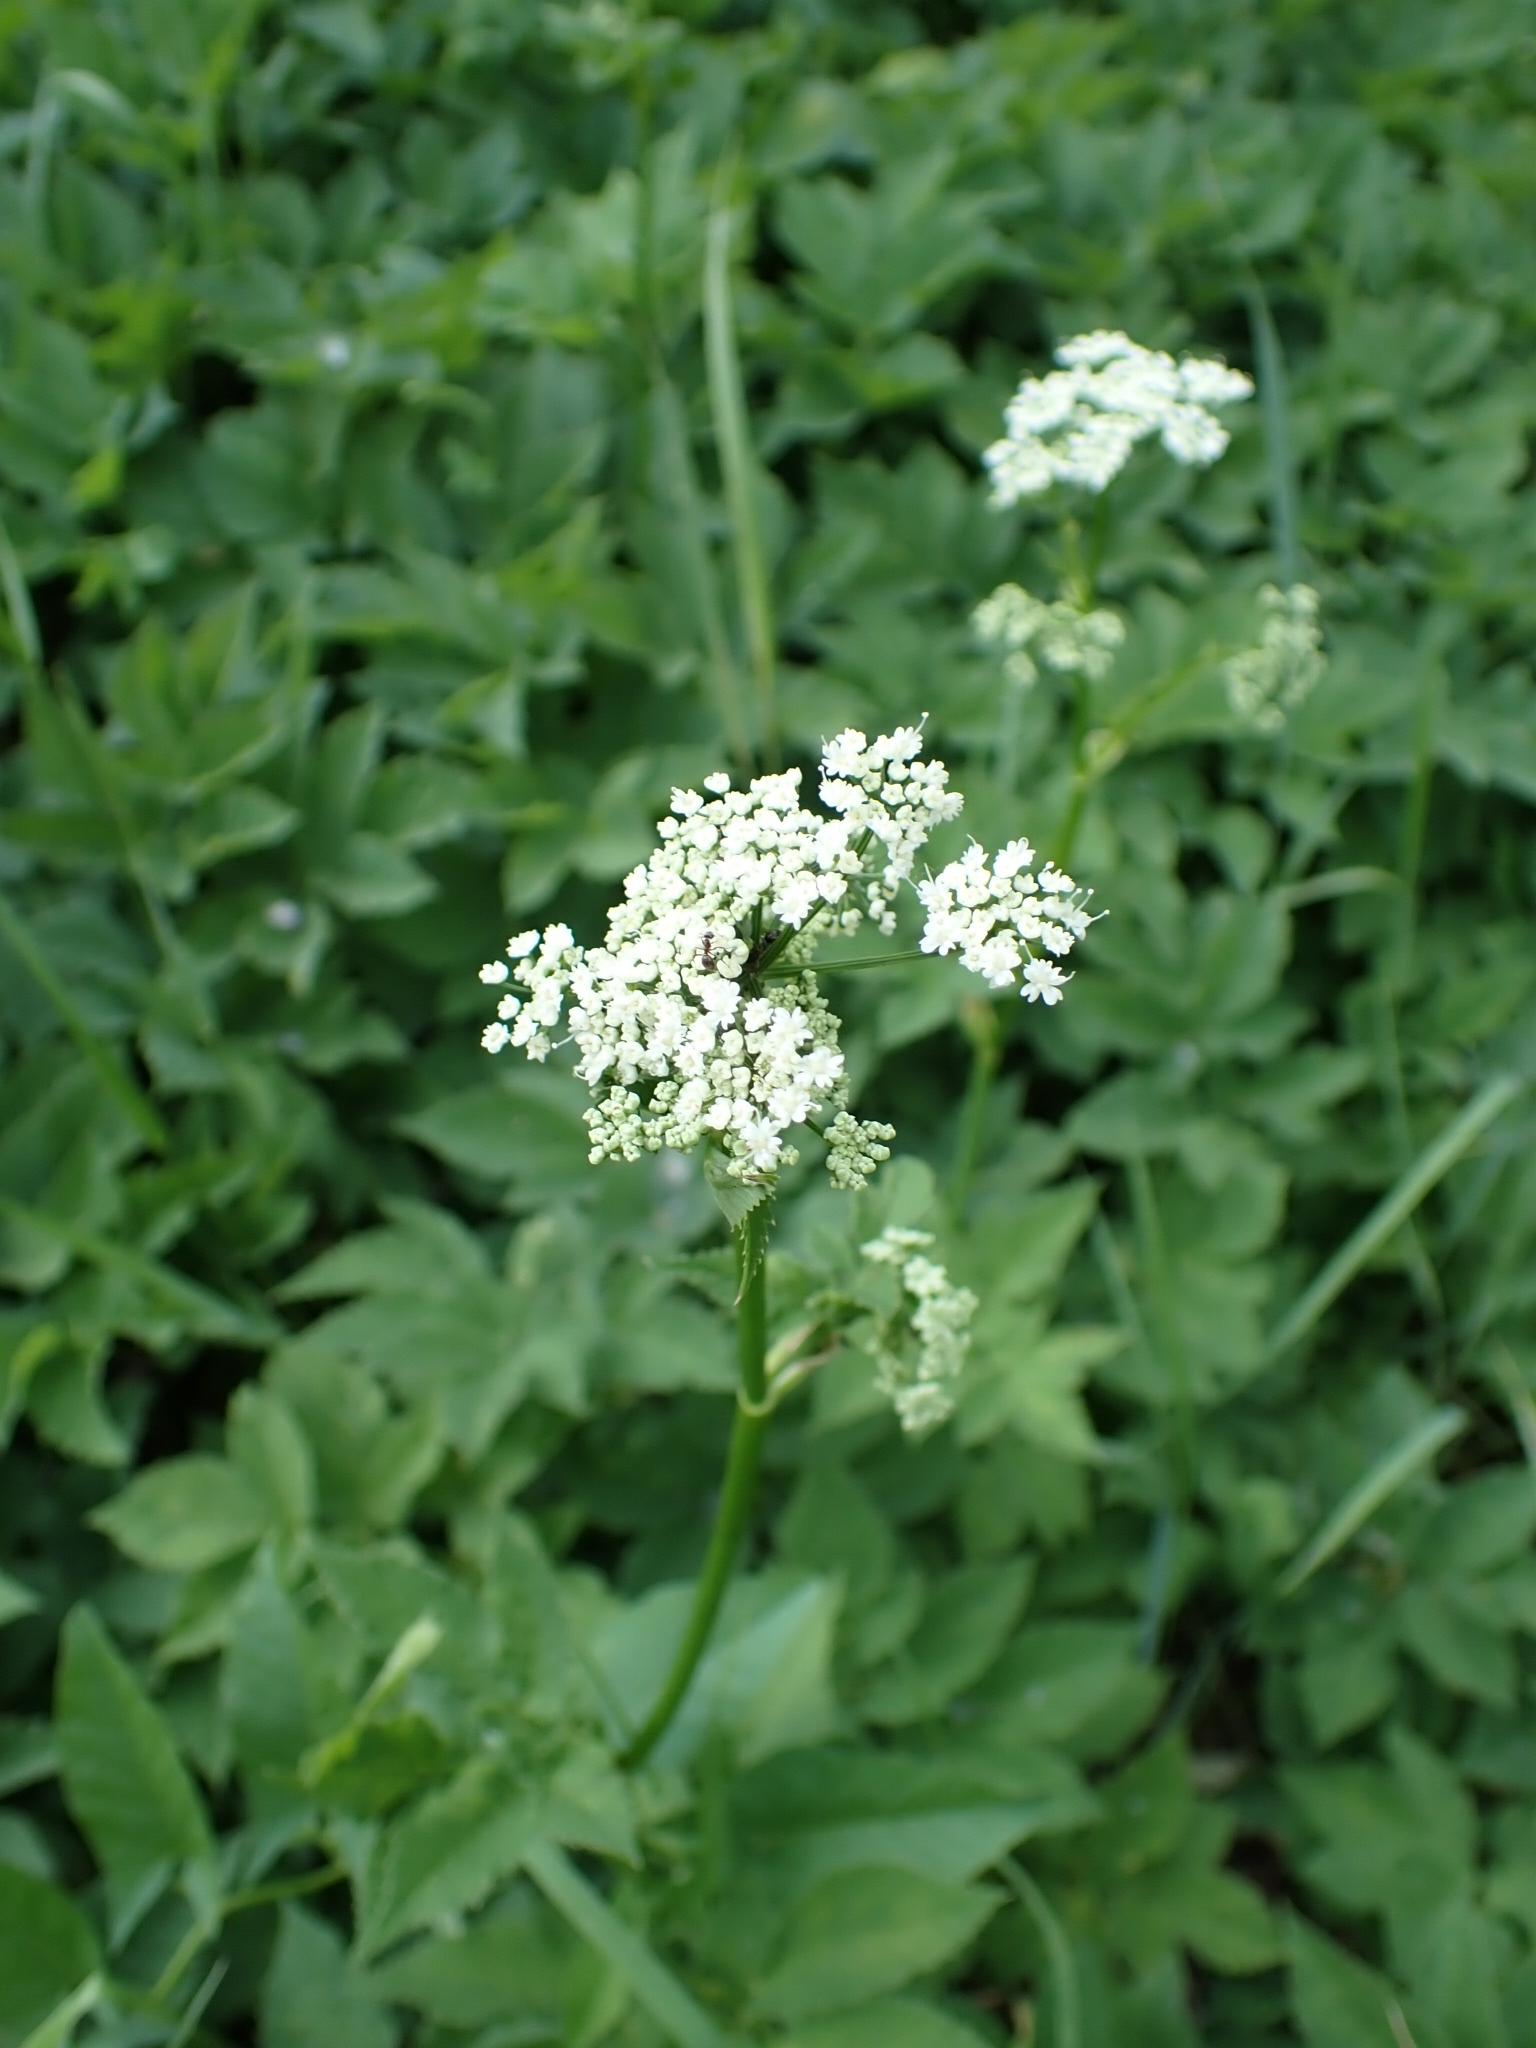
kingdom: Plantae
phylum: Tracheophyta
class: Magnoliopsida
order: Apiales
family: Apiaceae
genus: Aegopodium
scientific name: Aegopodium podagraria
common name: Ground-elder
